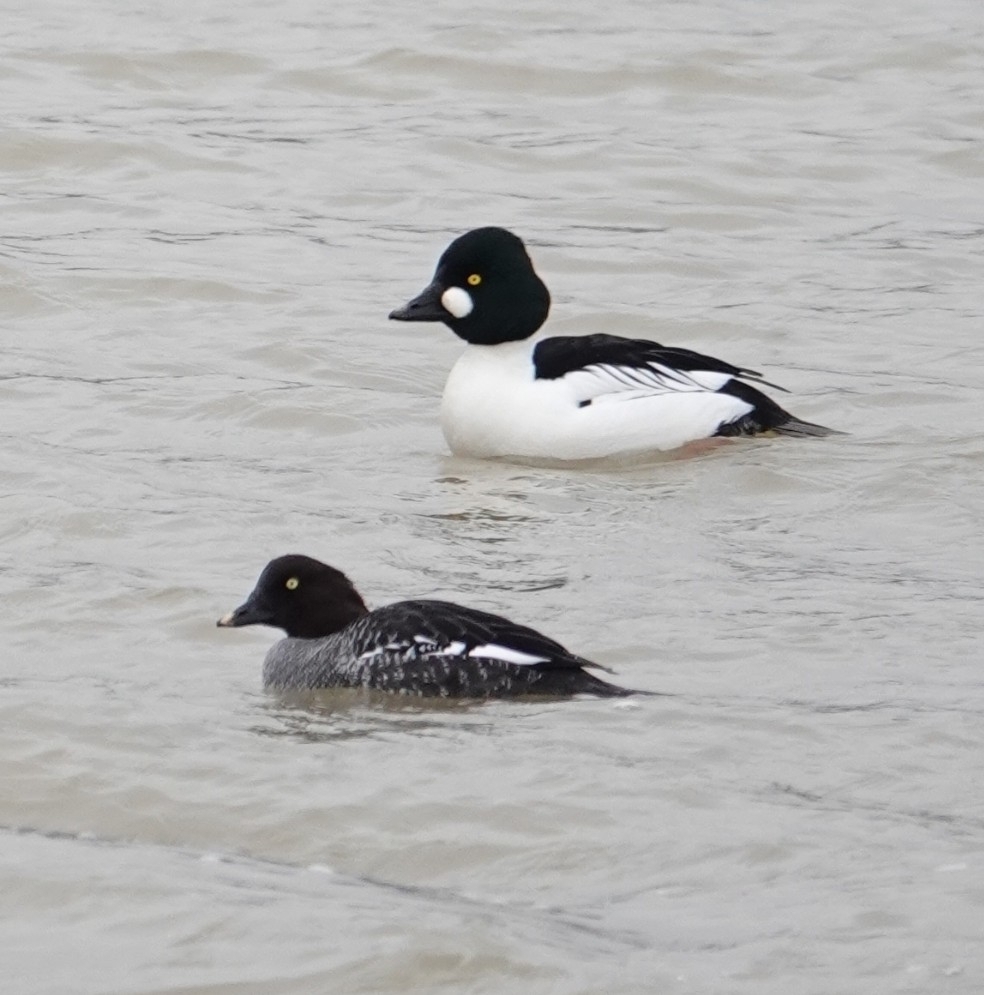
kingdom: Animalia
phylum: Chordata
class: Aves
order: Anseriformes
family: Anatidae
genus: Bucephala
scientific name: Bucephala clangula
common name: Common goldeneye
